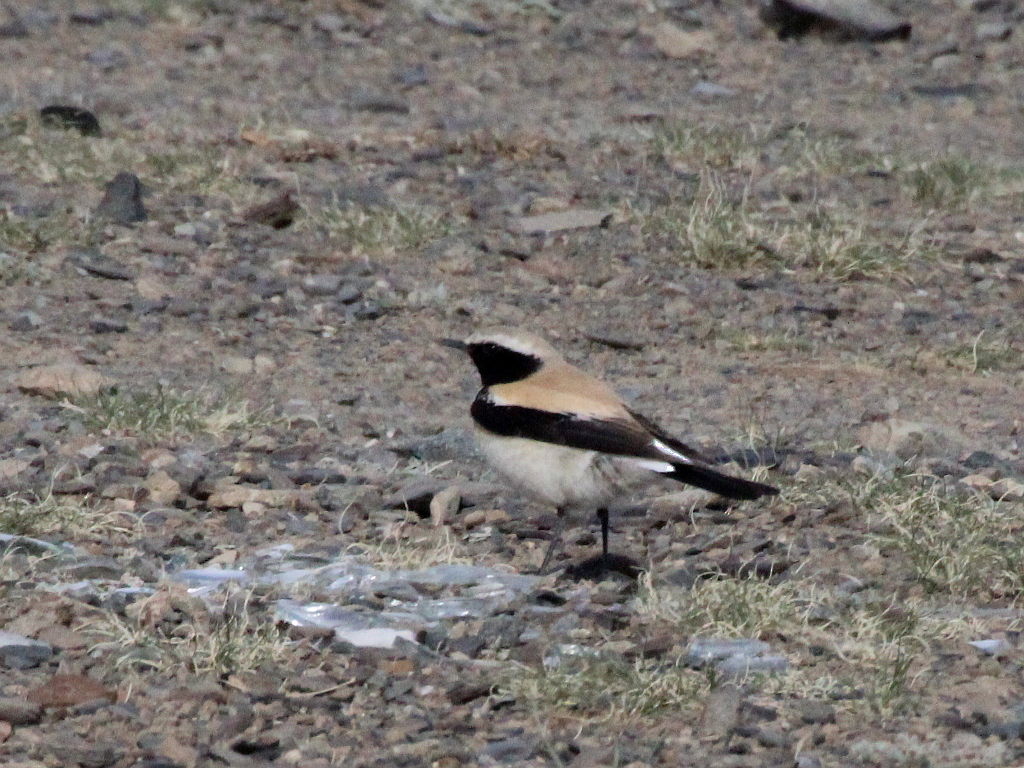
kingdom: Animalia
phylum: Chordata
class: Aves
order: Passeriformes
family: Muscicapidae
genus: Oenanthe
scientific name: Oenanthe deserti
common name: Desert wheatear
